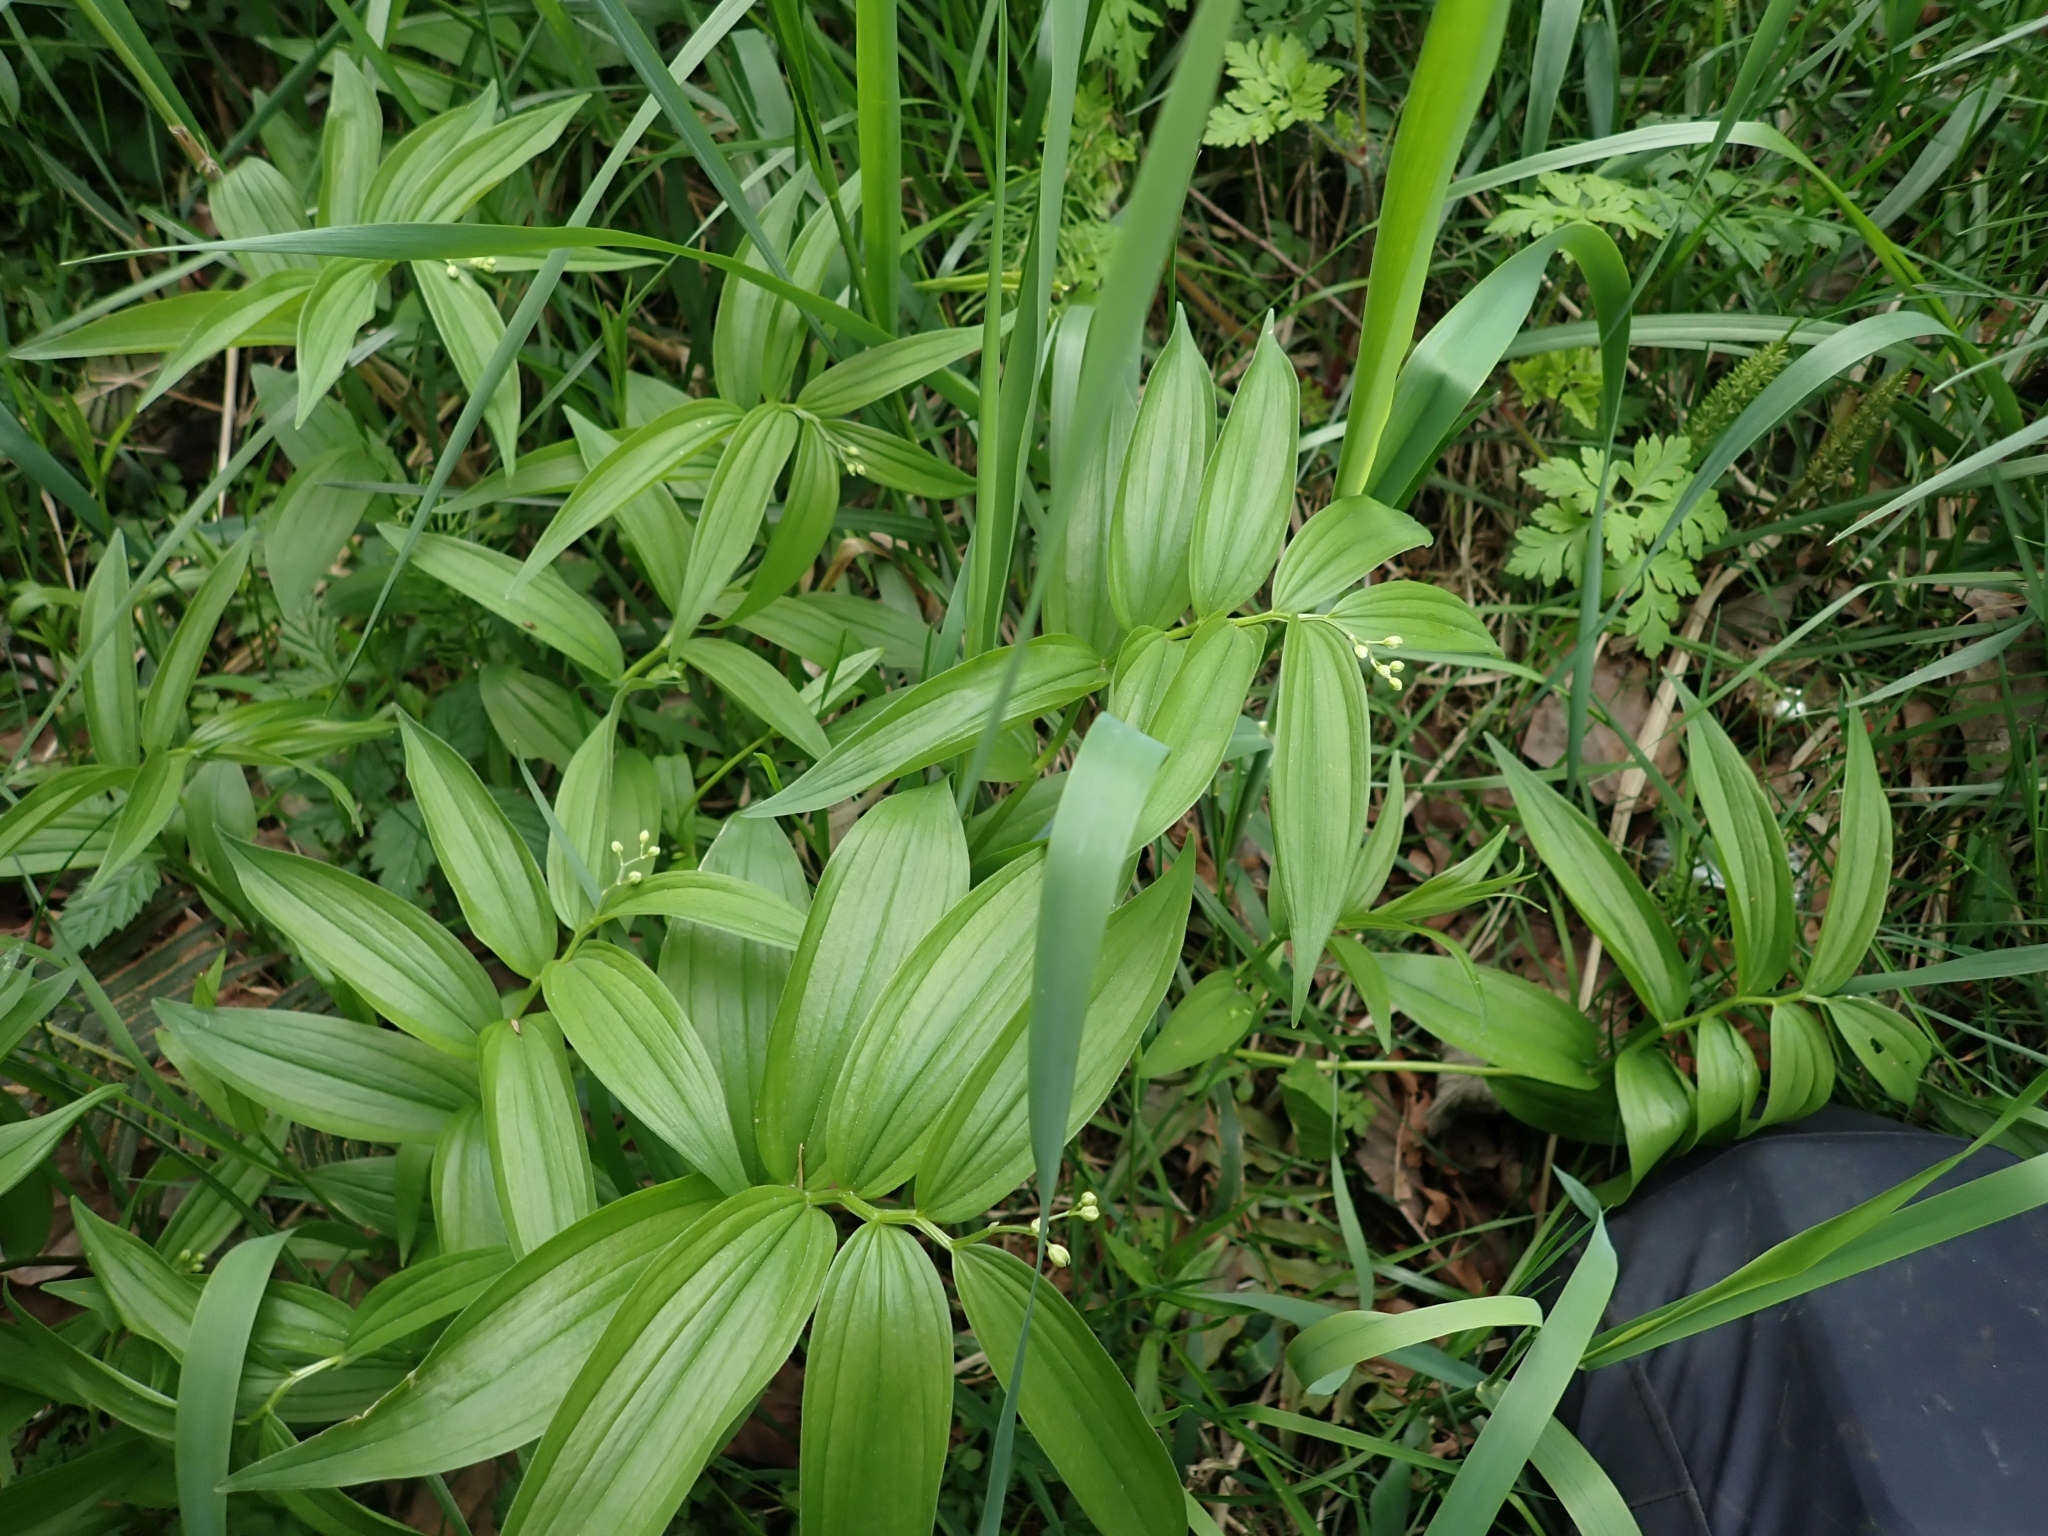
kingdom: Plantae
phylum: Tracheophyta
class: Liliopsida
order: Asparagales
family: Asparagaceae
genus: Maianthemum
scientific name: Maianthemum stellatum
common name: Little false solomon's seal
